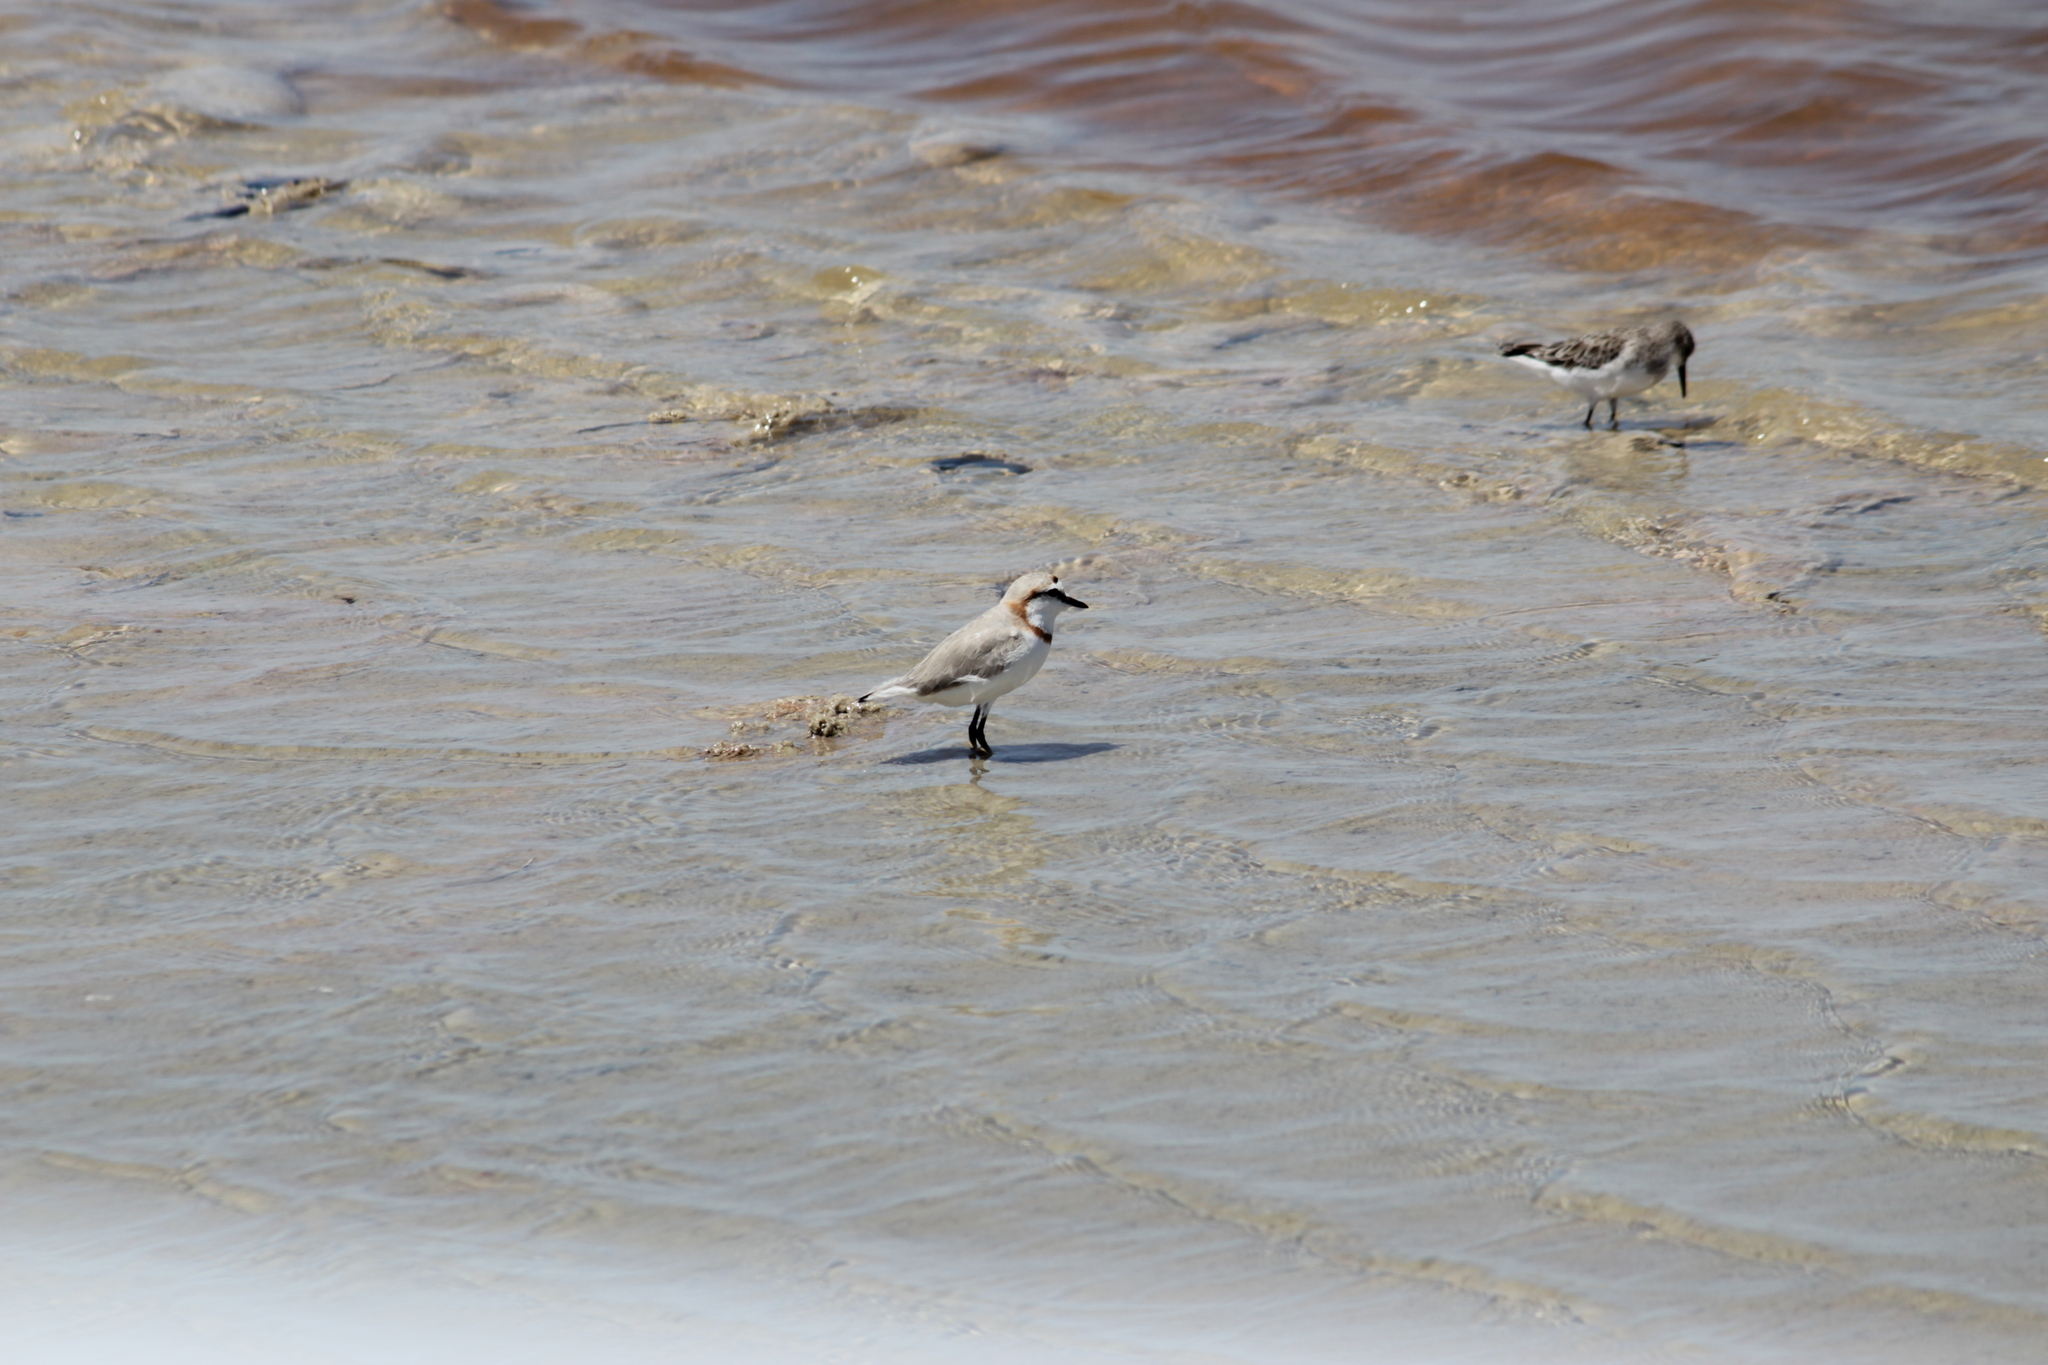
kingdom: Animalia
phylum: Chordata
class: Aves
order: Charadriiformes
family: Charadriidae
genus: Anarhynchus
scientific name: Anarhynchus
